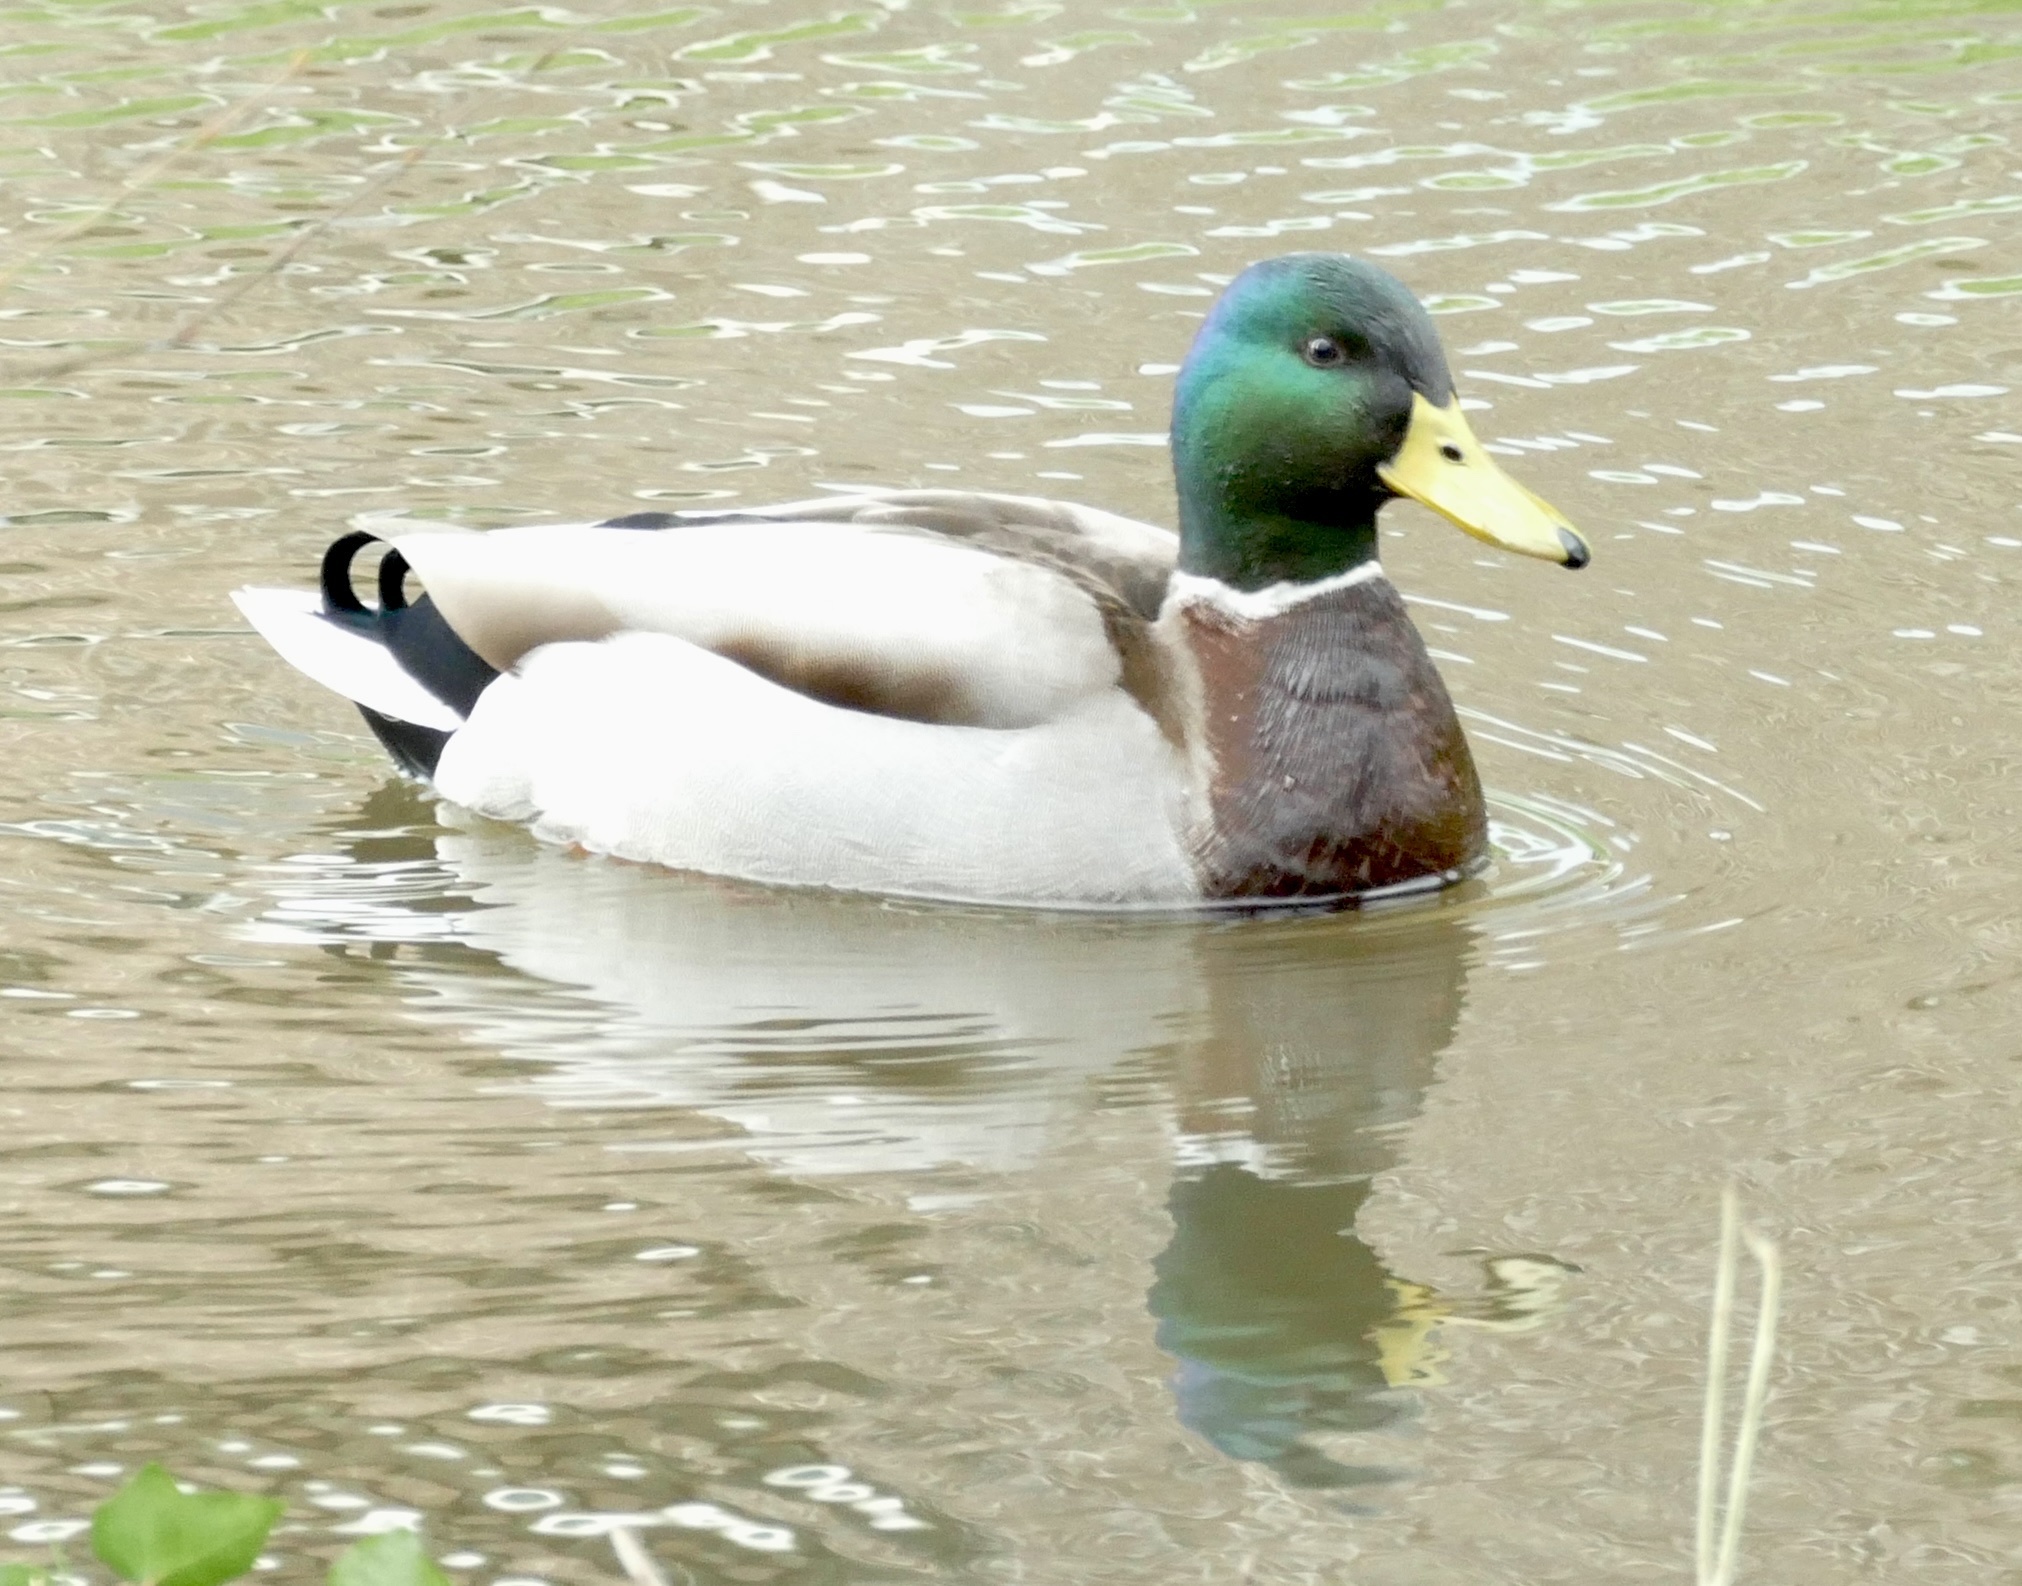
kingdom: Animalia
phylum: Chordata
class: Aves
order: Anseriformes
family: Anatidae
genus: Anas
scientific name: Anas platyrhynchos
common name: Mallard
